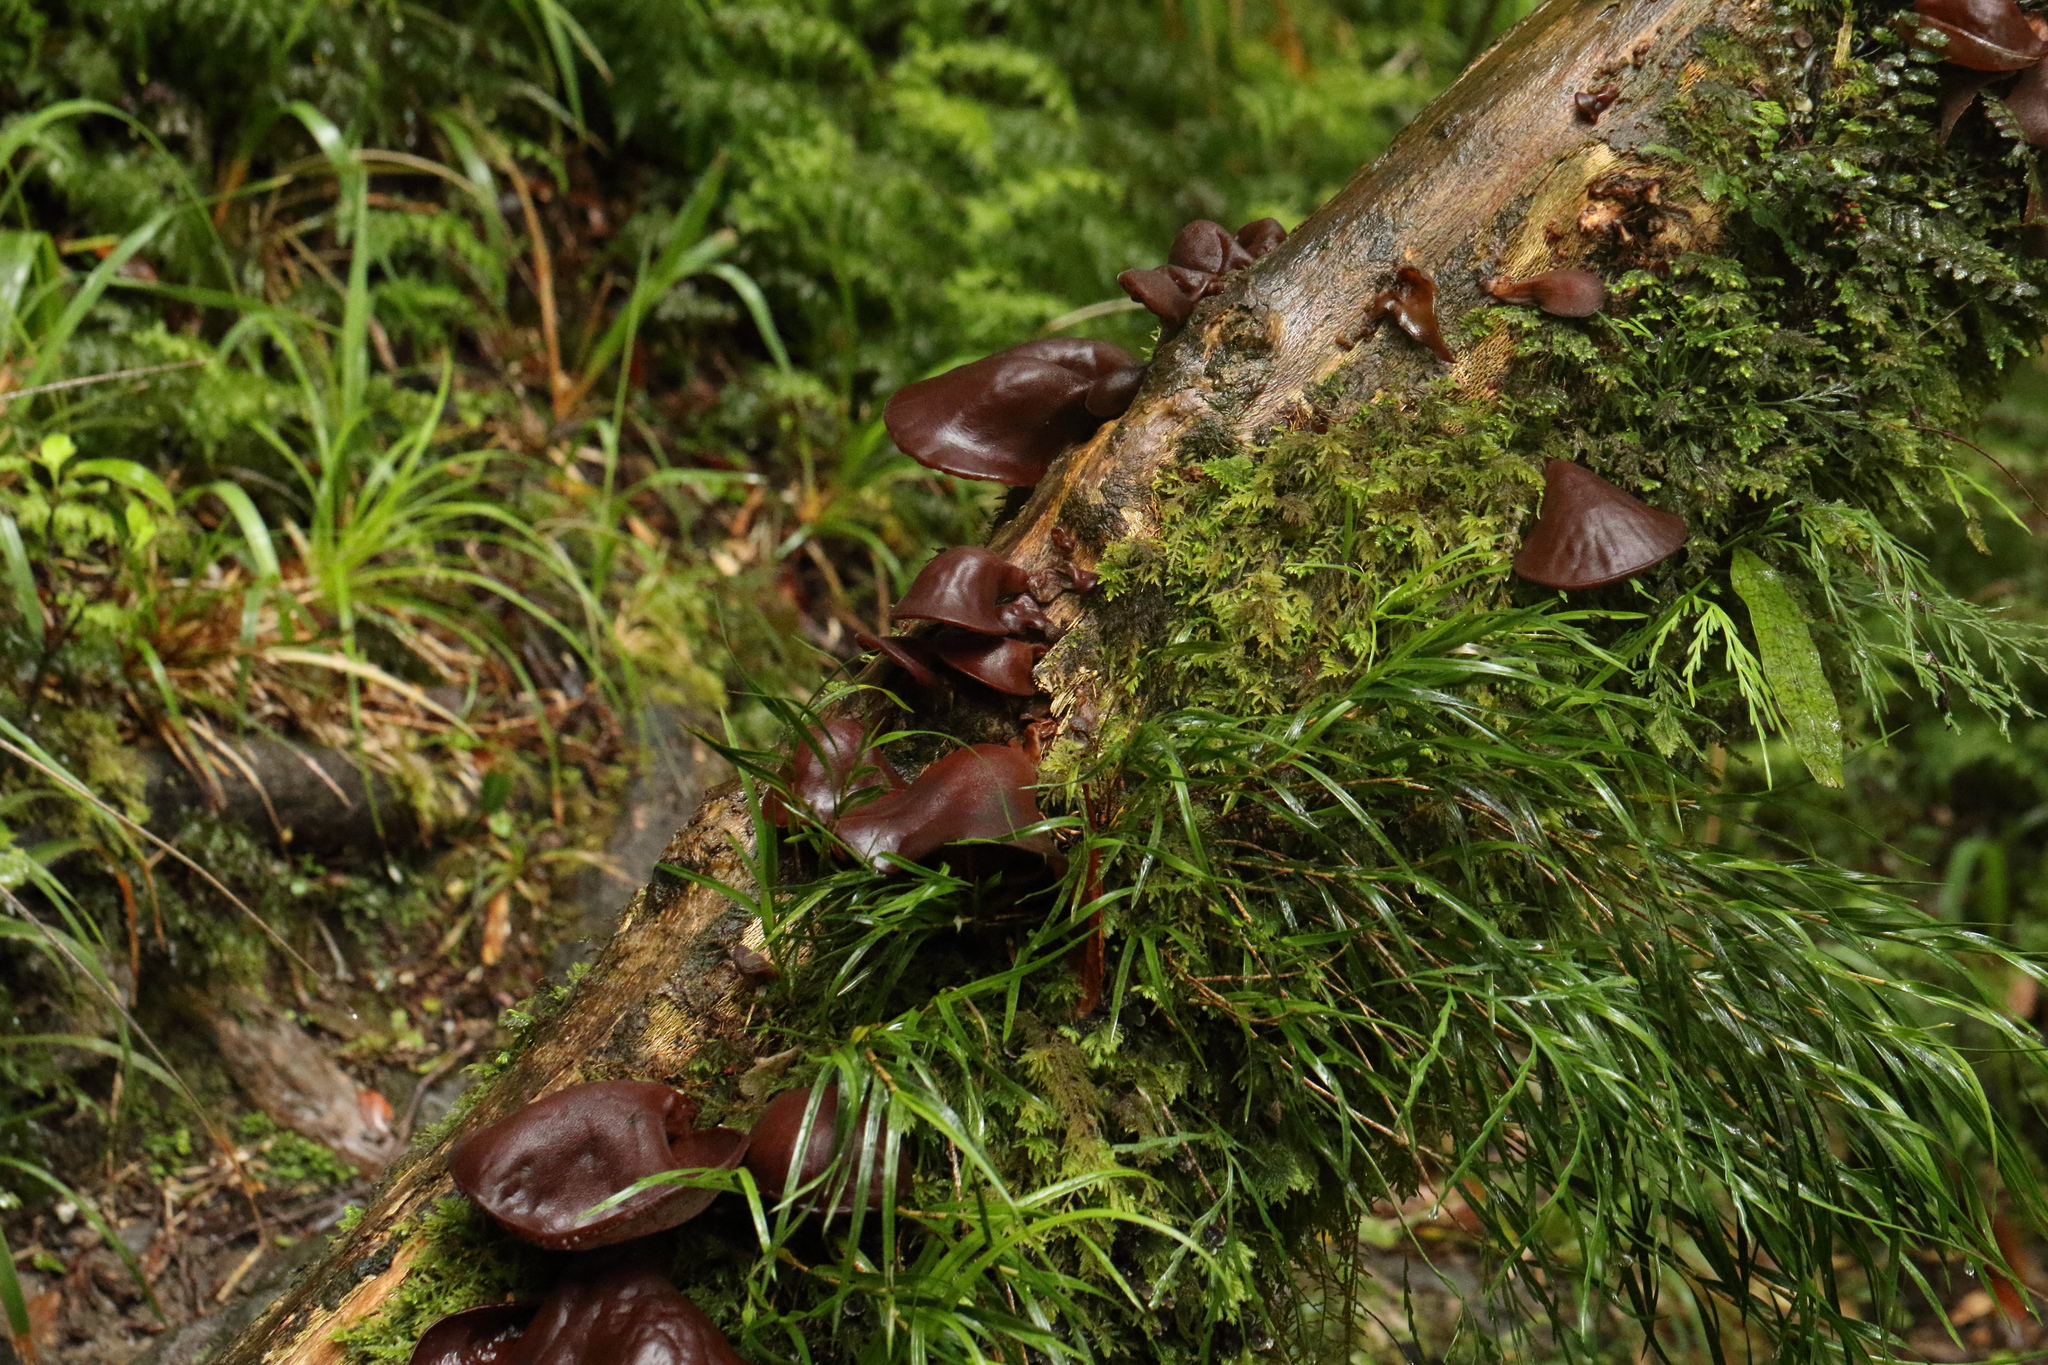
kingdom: Fungi
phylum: Basidiomycota
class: Agaricomycetes
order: Auriculariales
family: Auriculariaceae
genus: Auricularia
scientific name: Auricularia cornea
